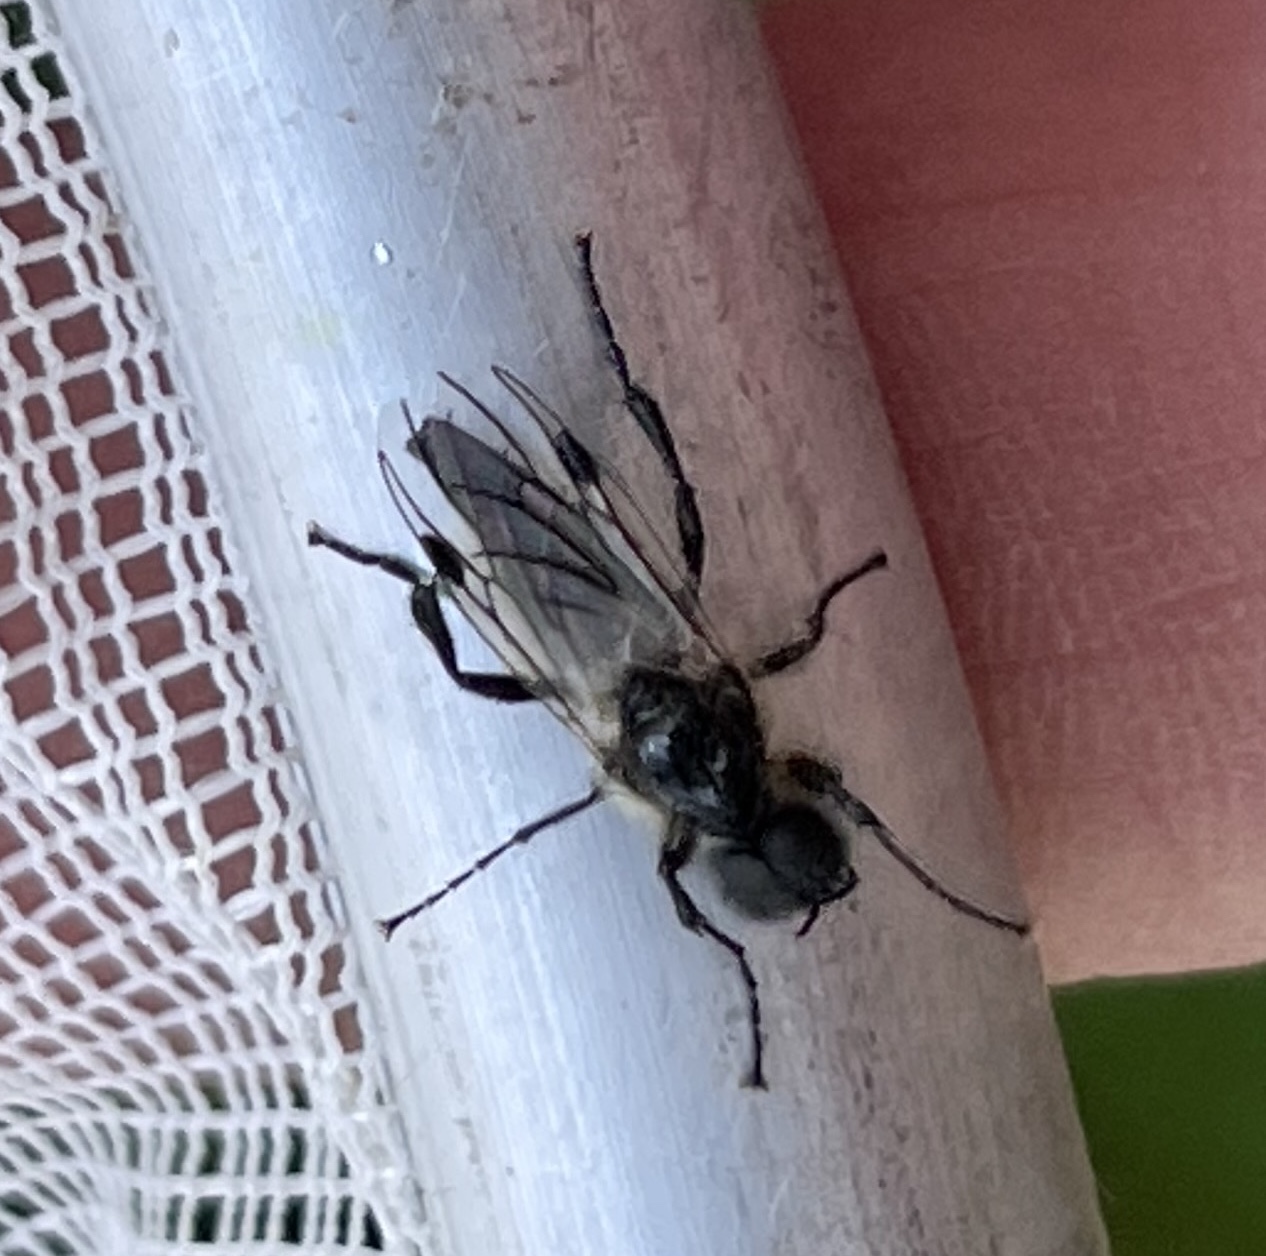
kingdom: Animalia
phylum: Arthropoda
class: Insecta
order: Diptera
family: Bibionidae
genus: Bibio
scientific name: Bibio albipennis
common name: White-winged march fly
